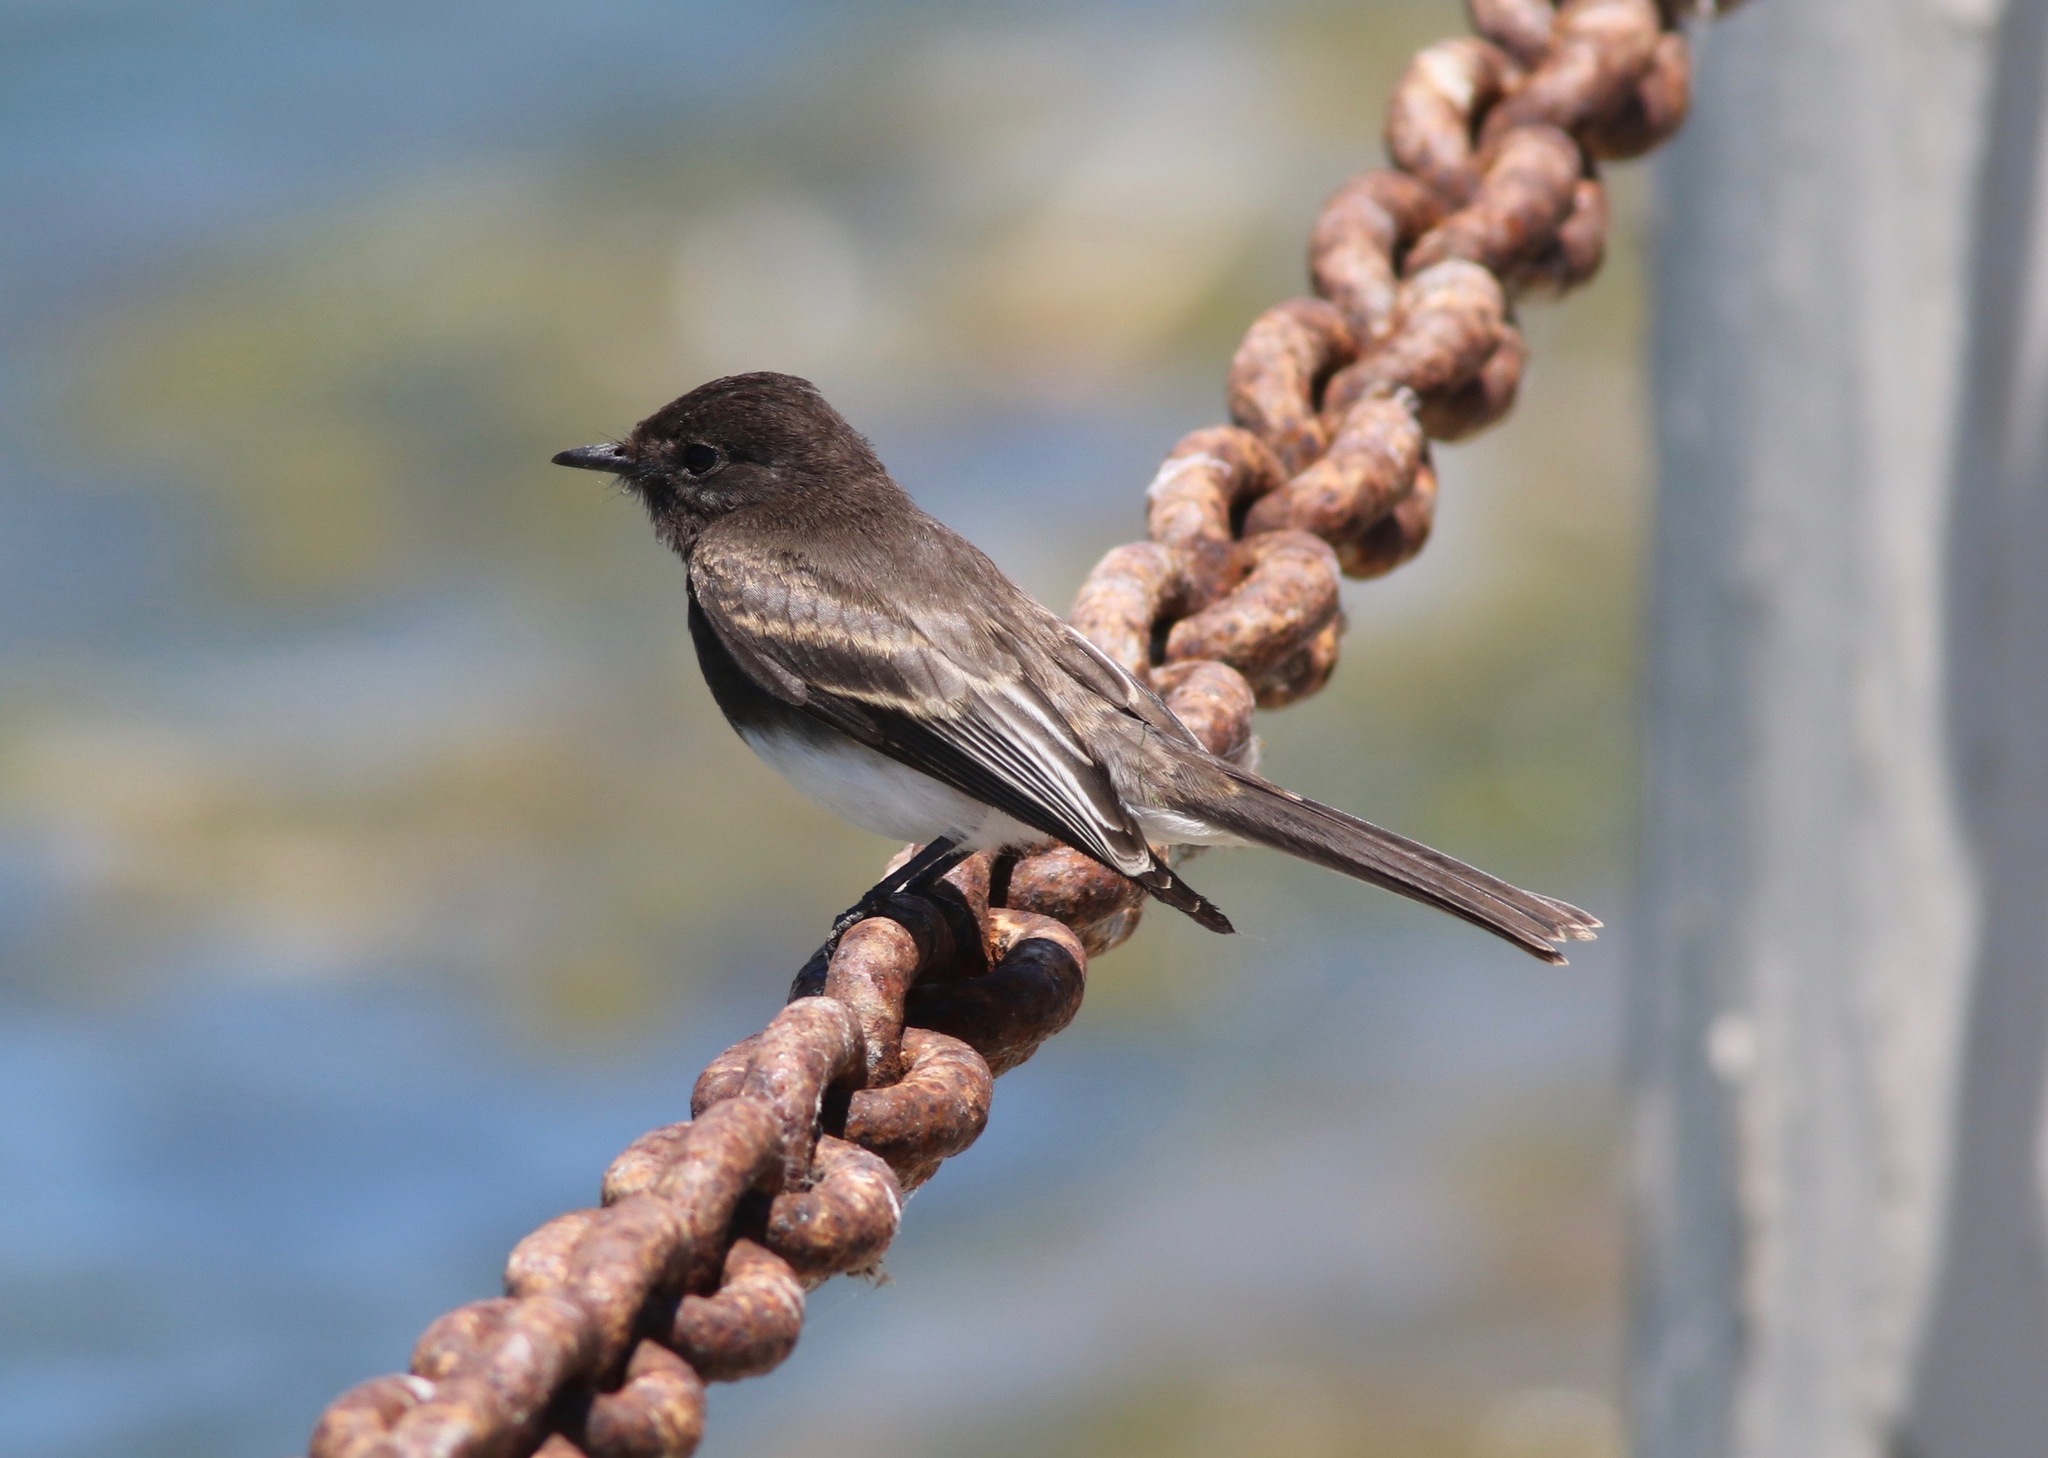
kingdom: Animalia
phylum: Chordata
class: Aves
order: Passeriformes
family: Tyrannidae
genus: Sayornis
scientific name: Sayornis nigricans
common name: Black phoebe
